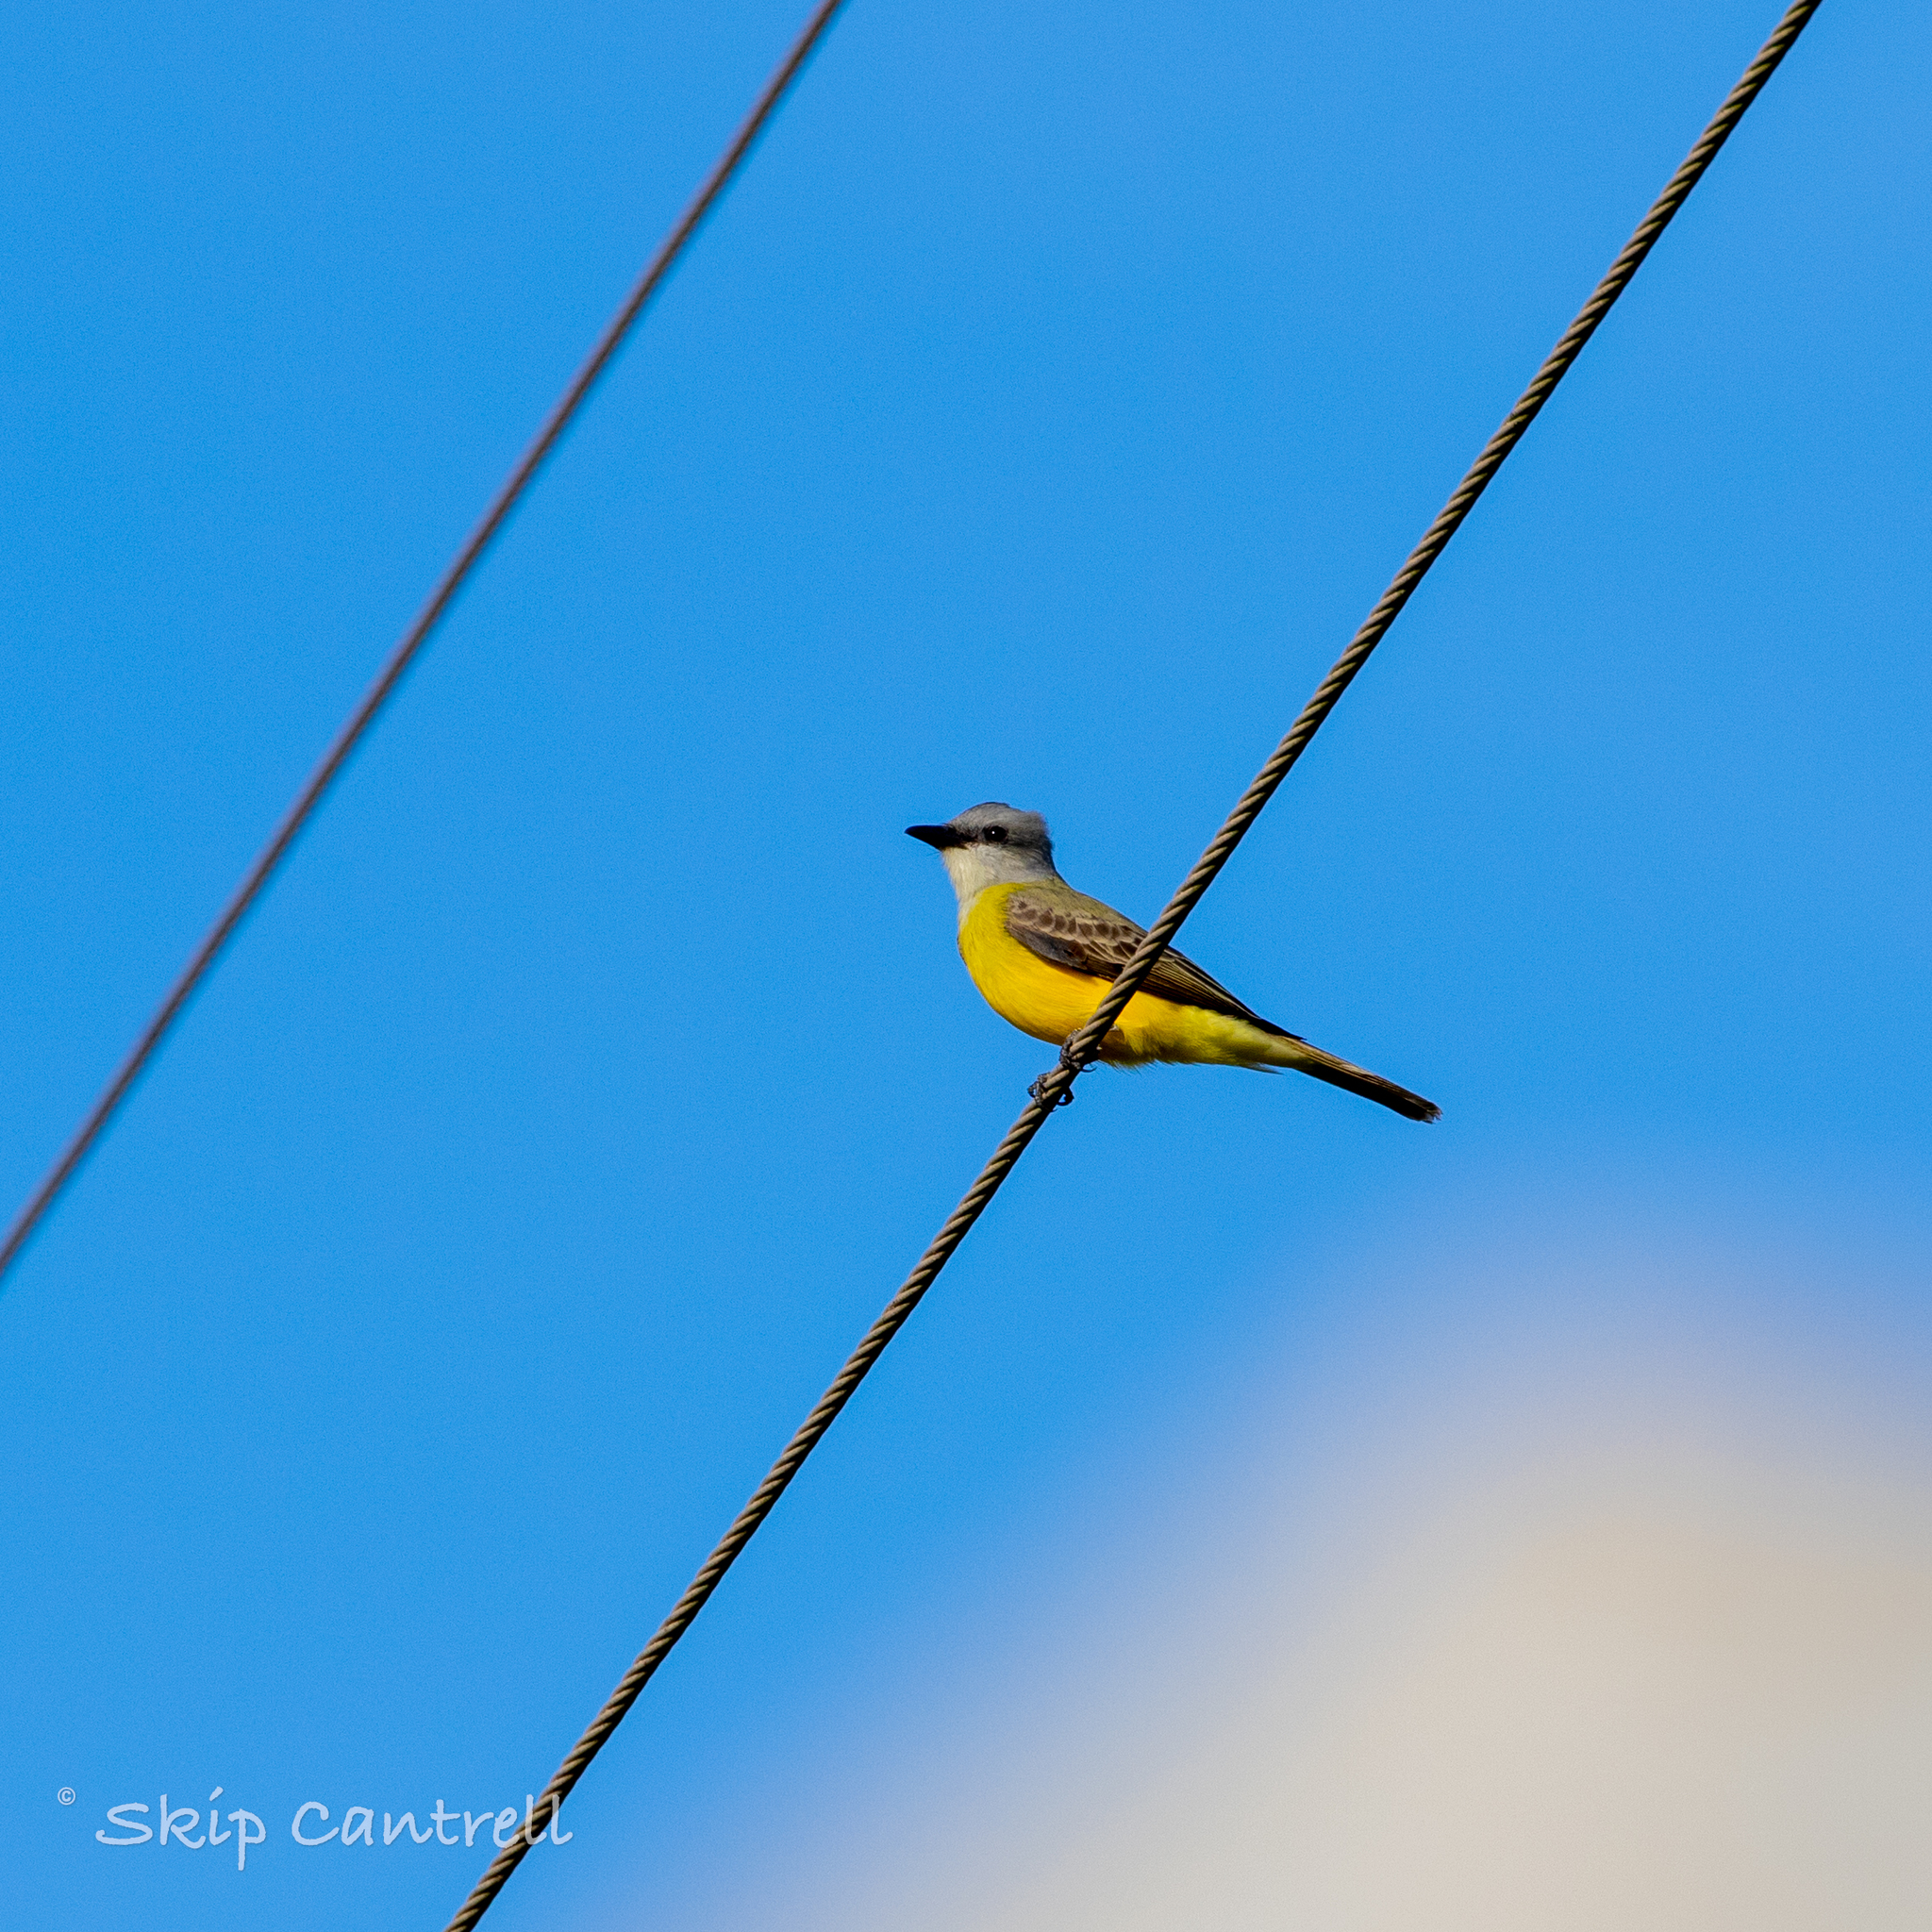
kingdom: Animalia
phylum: Chordata
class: Aves
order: Passeriformes
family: Tyrannidae
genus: Tyrannus
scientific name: Tyrannus couchii
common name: Couch's kingbird
